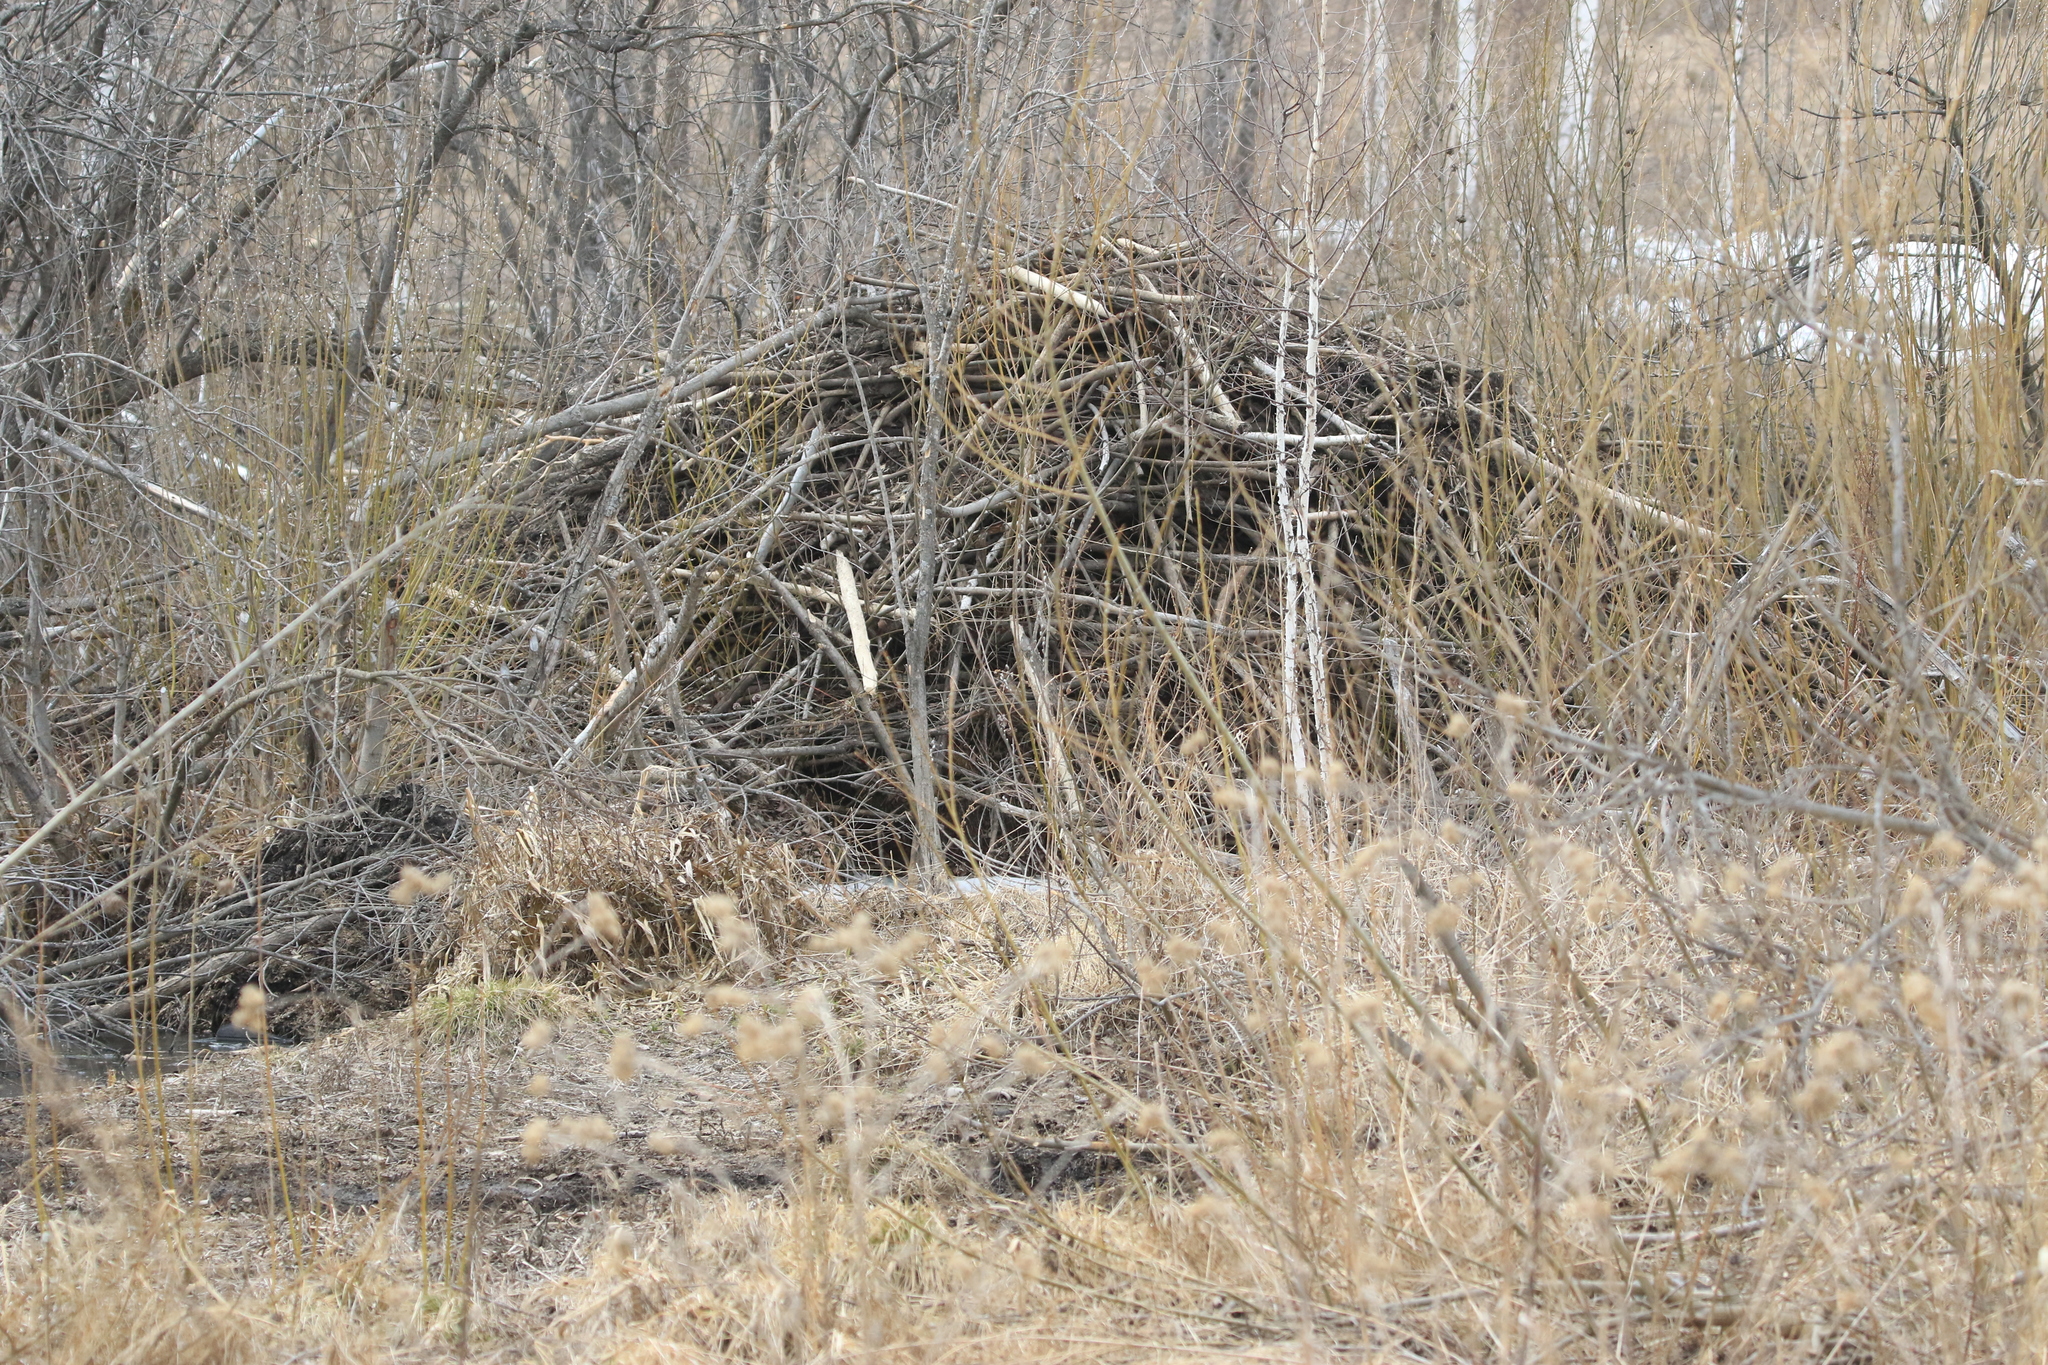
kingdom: Animalia
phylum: Chordata
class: Mammalia
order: Rodentia
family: Castoridae
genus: Castor
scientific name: Castor fiber
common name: Eurasian beaver
